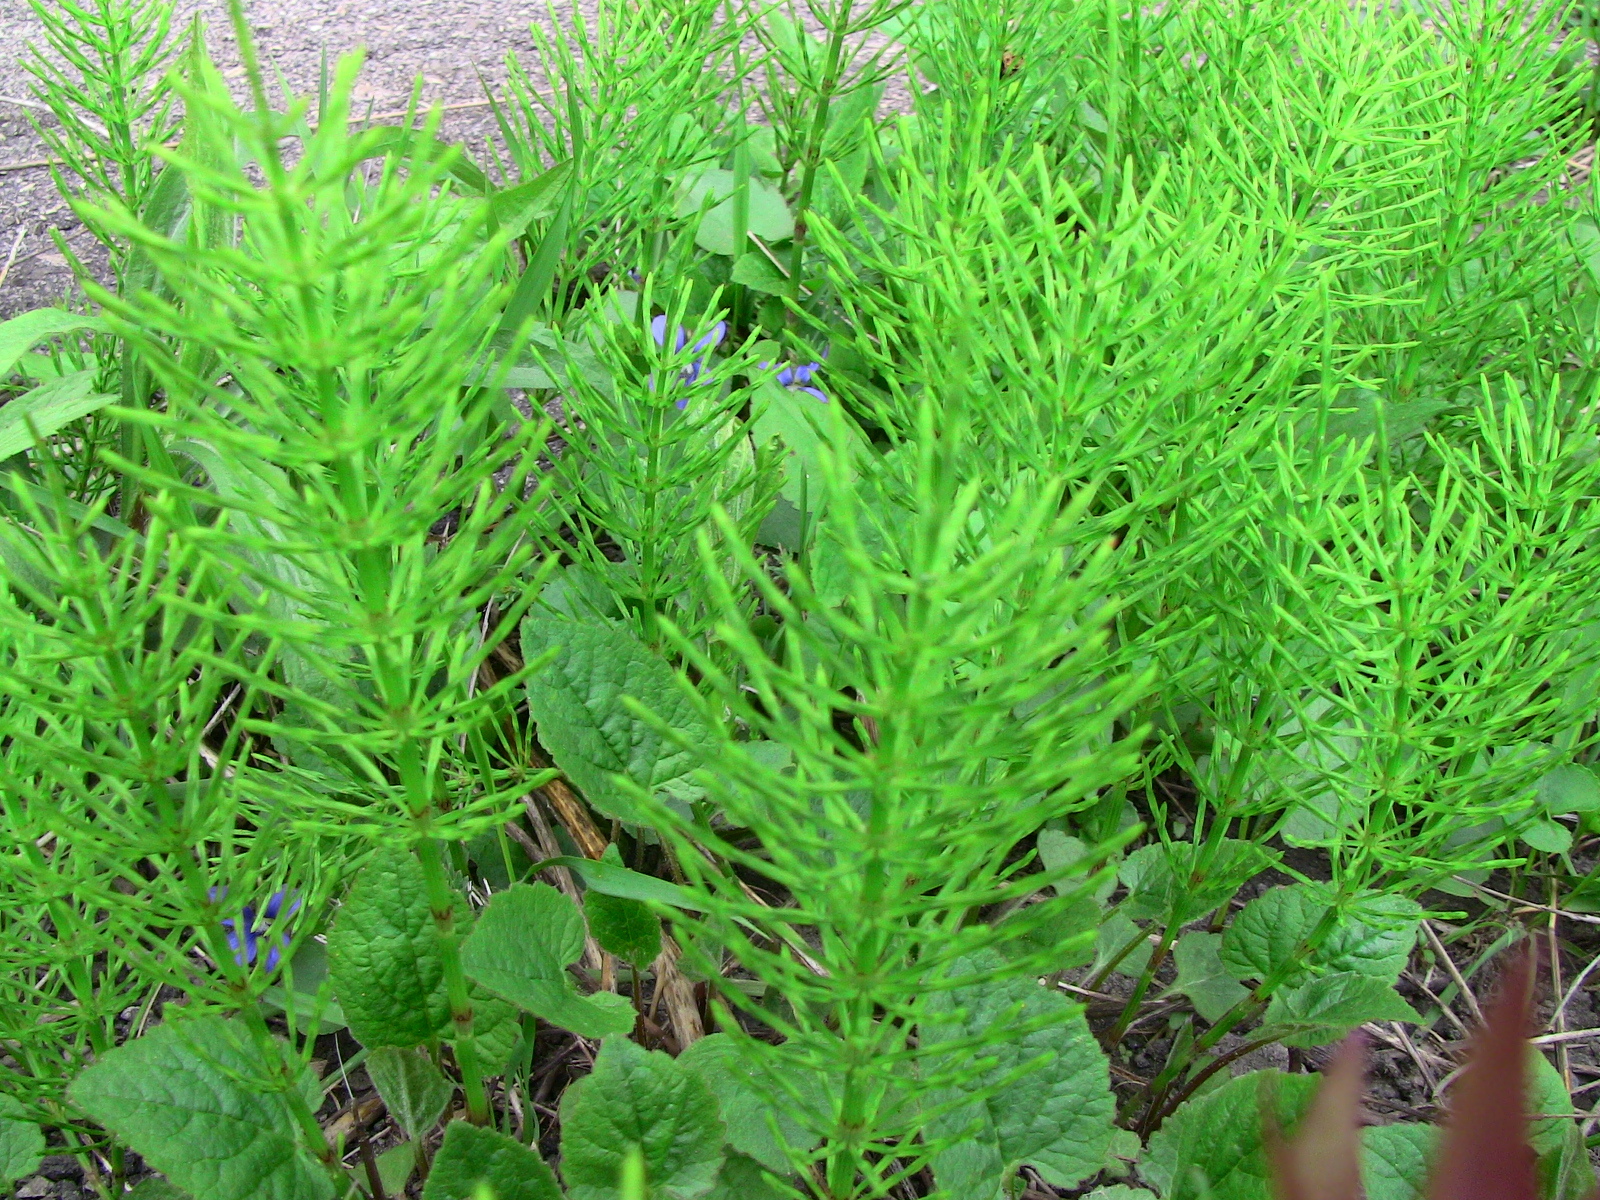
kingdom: Plantae
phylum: Tracheophyta
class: Polypodiopsida
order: Equisetales
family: Equisetaceae
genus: Equisetum
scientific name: Equisetum arvense
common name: Field horsetail
